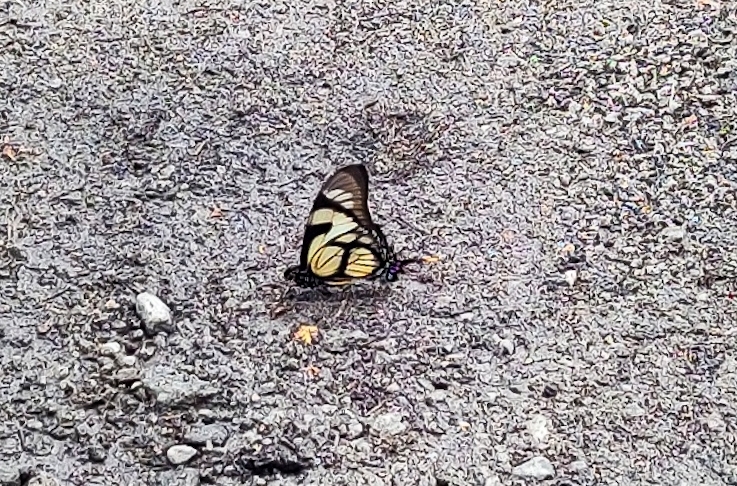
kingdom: Animalia
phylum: Arthropoda
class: Insecta
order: Lepidoptera
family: Papilionidae
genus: Eurytides
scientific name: Eurytides dolicaon
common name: Dolicaon kite swallowtail
